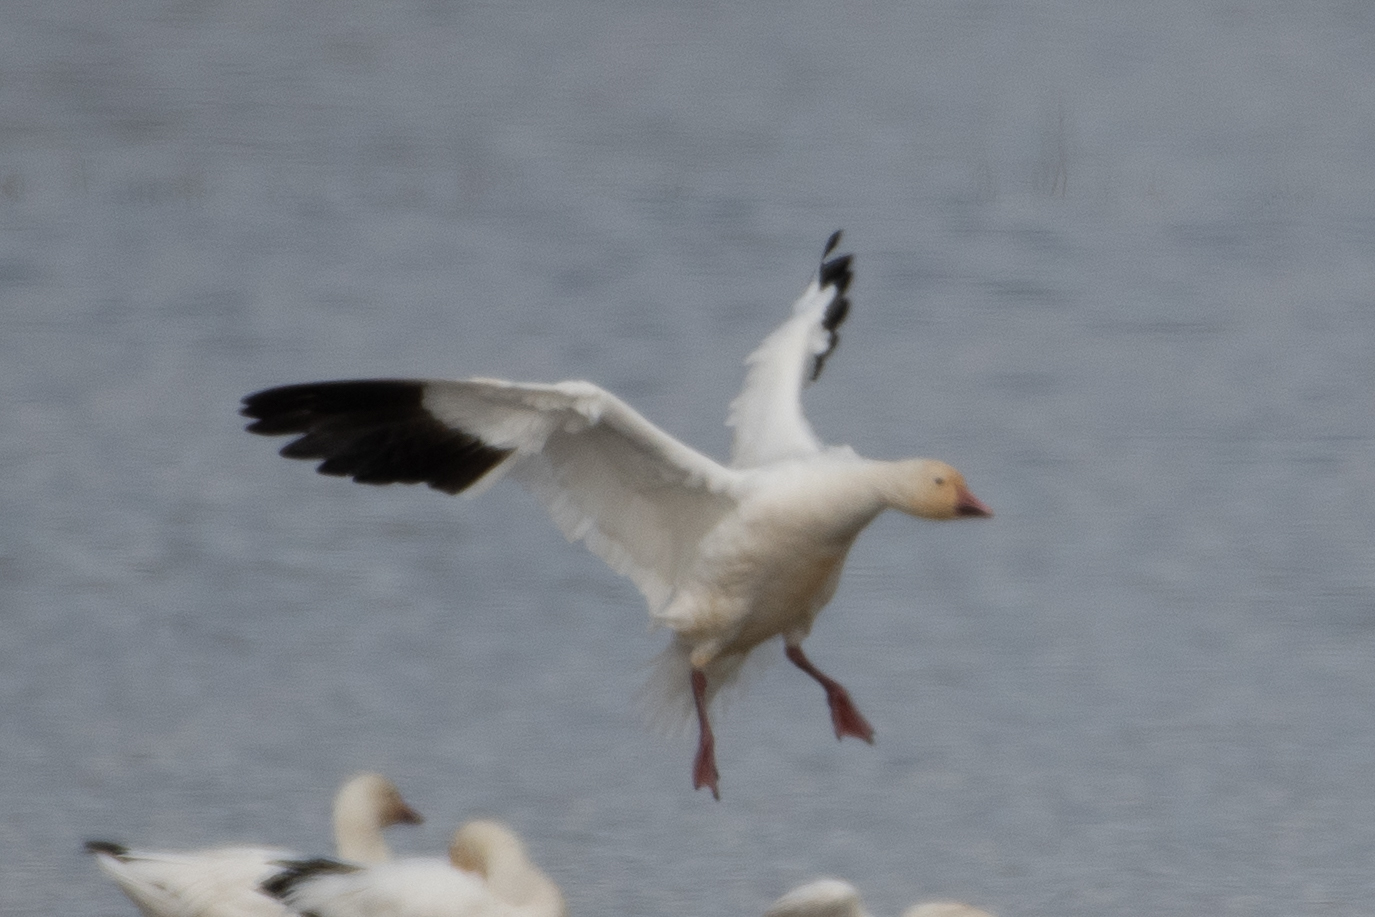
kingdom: Animalia
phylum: Chordata
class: Aves
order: Anseriformes
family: Anatidae
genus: Anser
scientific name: Anser caerulescens
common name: Snow goose
